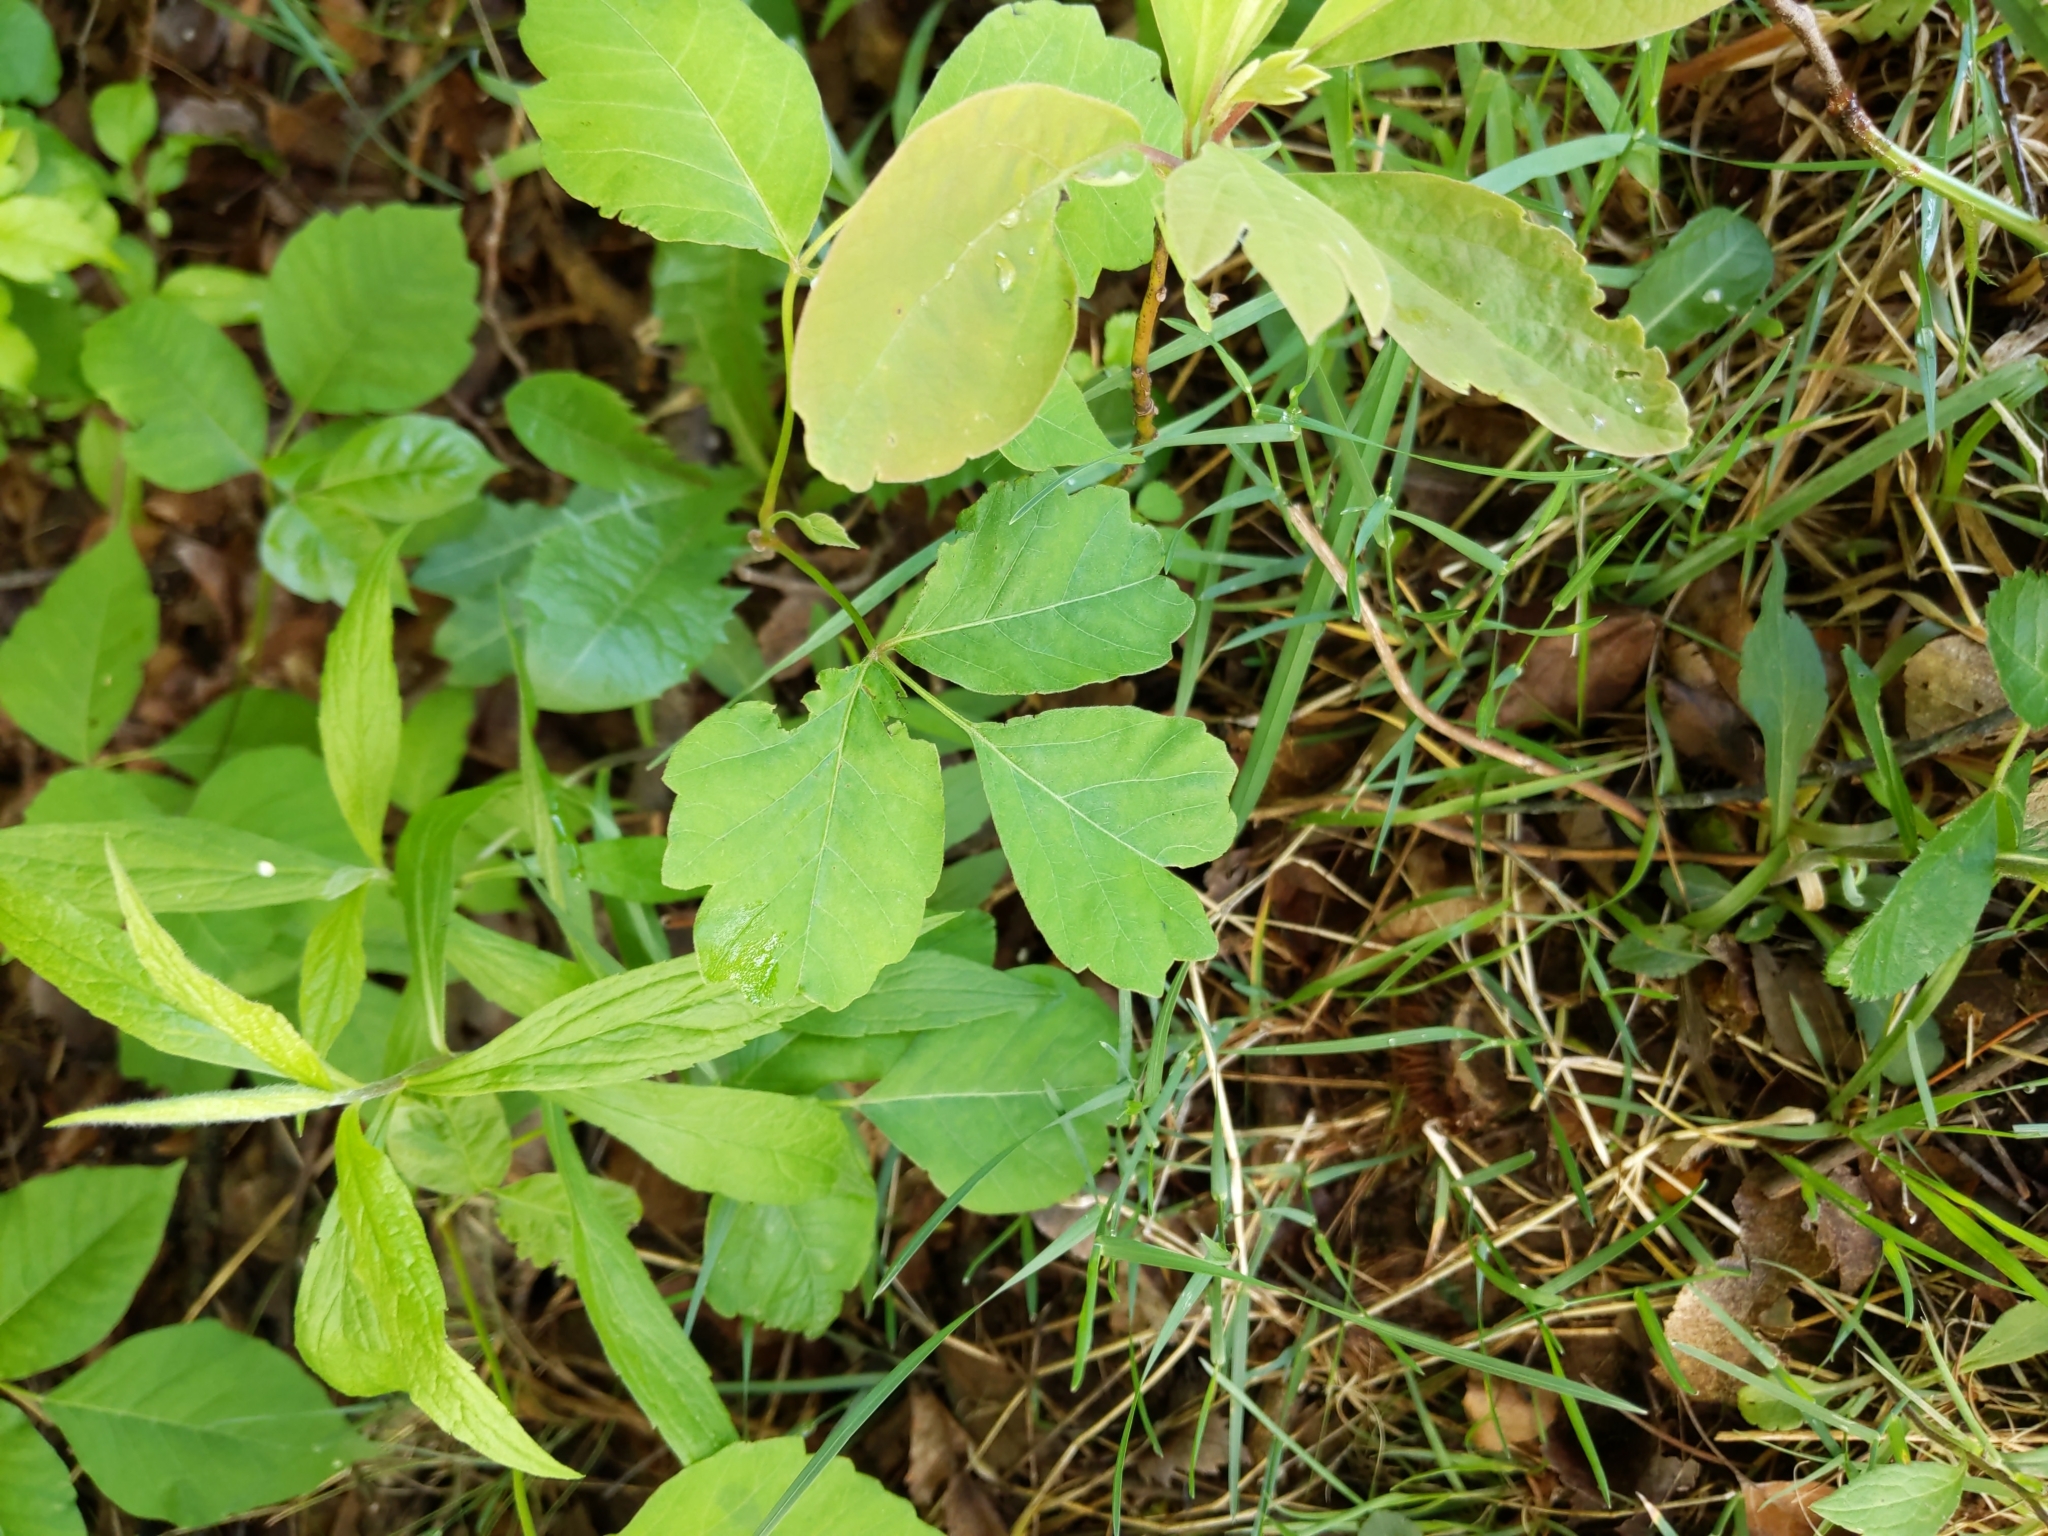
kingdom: Plantae
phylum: Tracheophyta
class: Magnoliopsida
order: Sapindales
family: Anacardiaceae
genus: Toxicodendron
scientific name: Toxicodendron radicans
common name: Poison ivy
